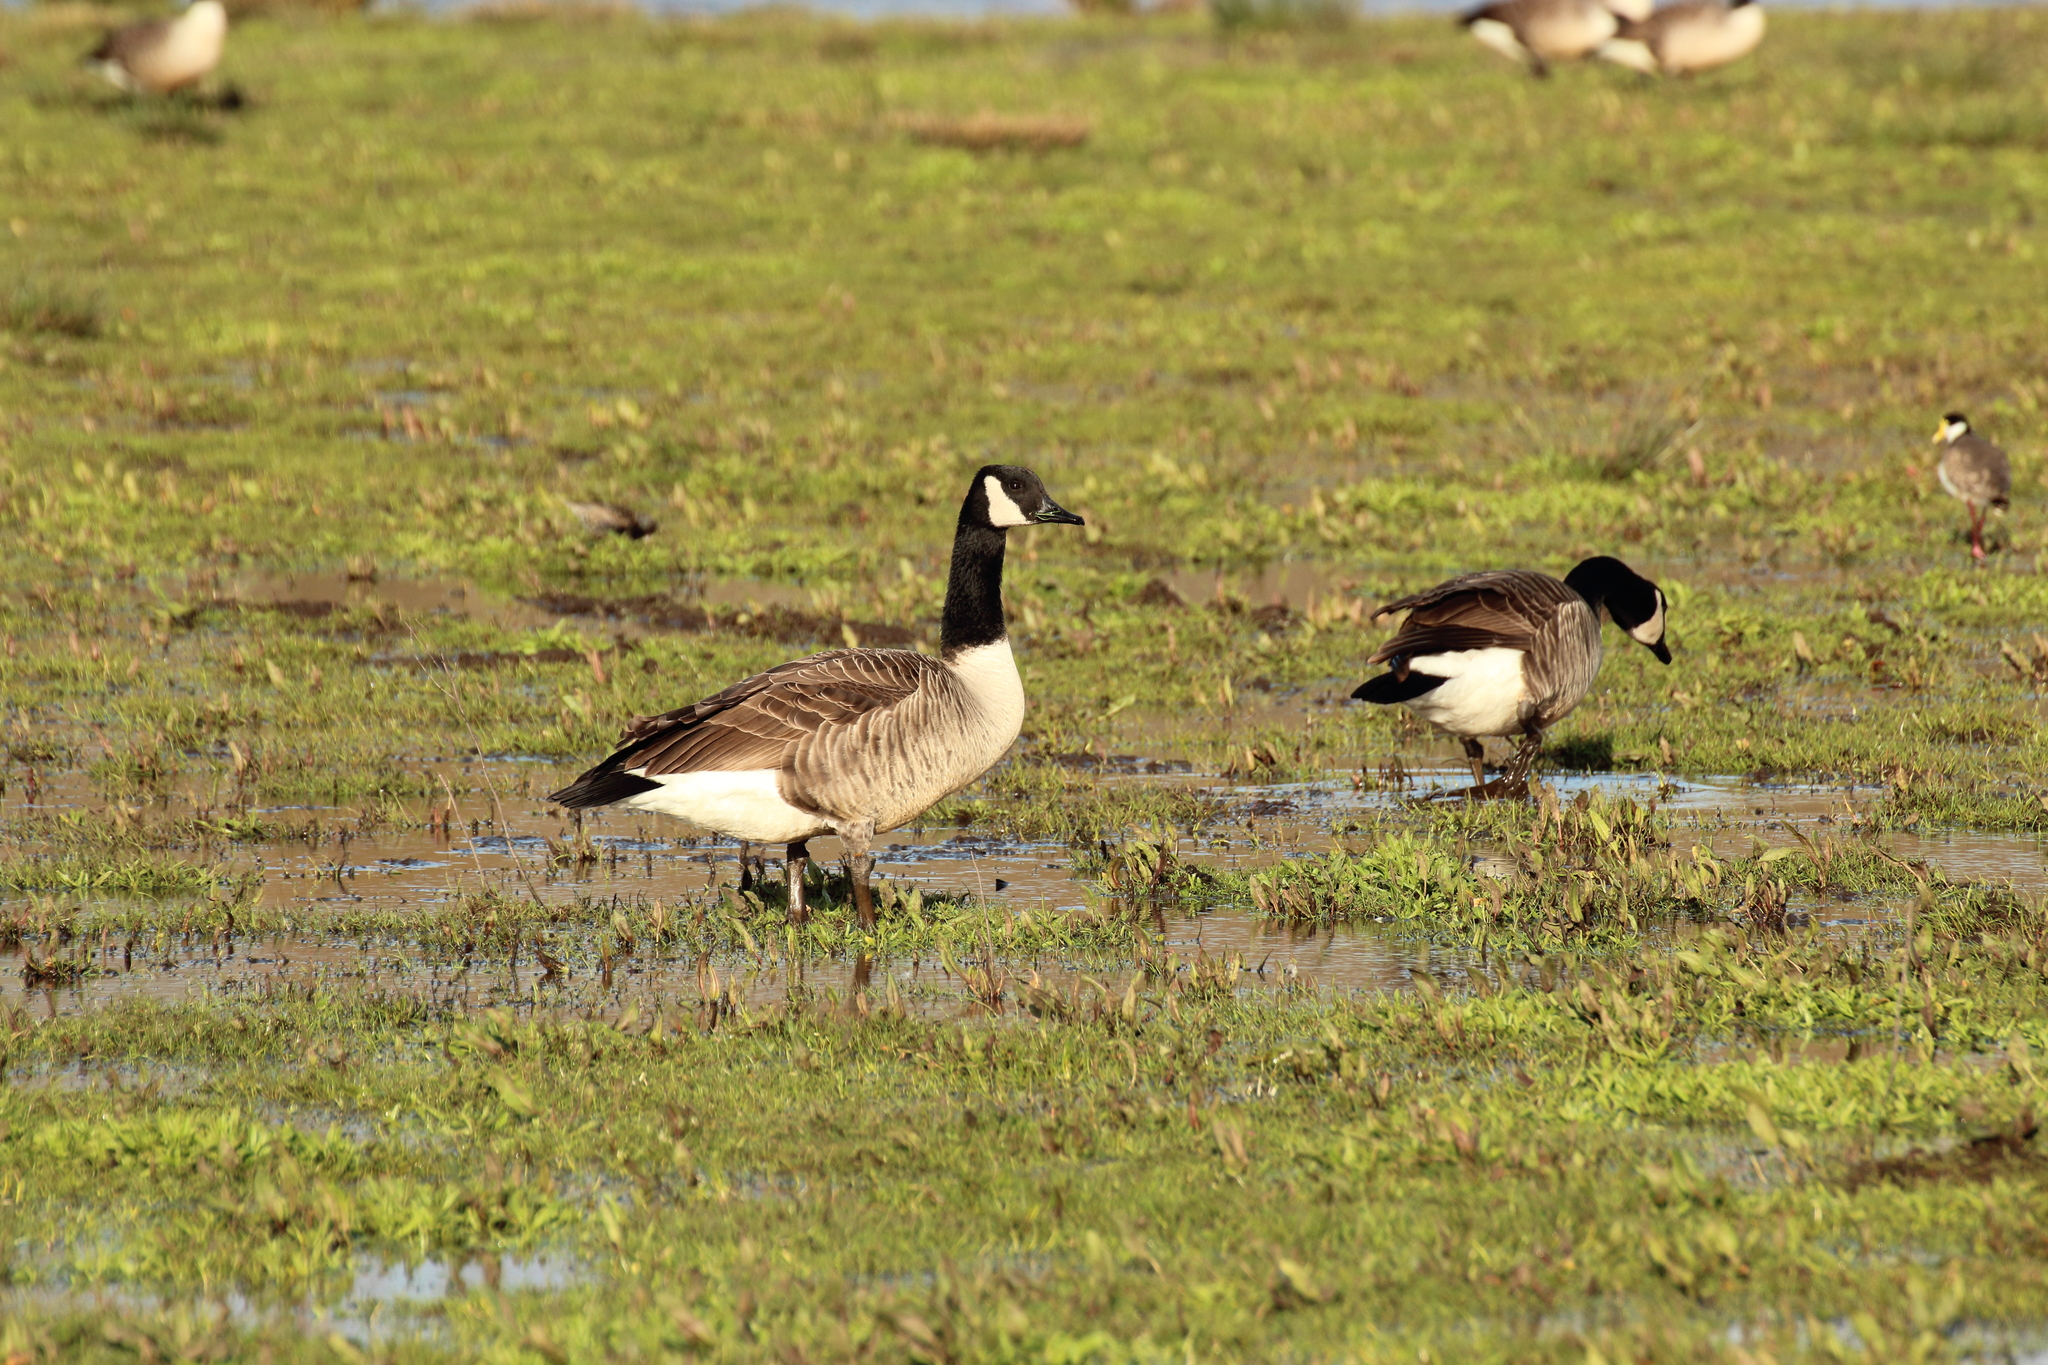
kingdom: Animalia
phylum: Chordata
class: Aves
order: Anseriformes
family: Anatidae
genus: Branta
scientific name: Branta canadensis
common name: Canada goose
